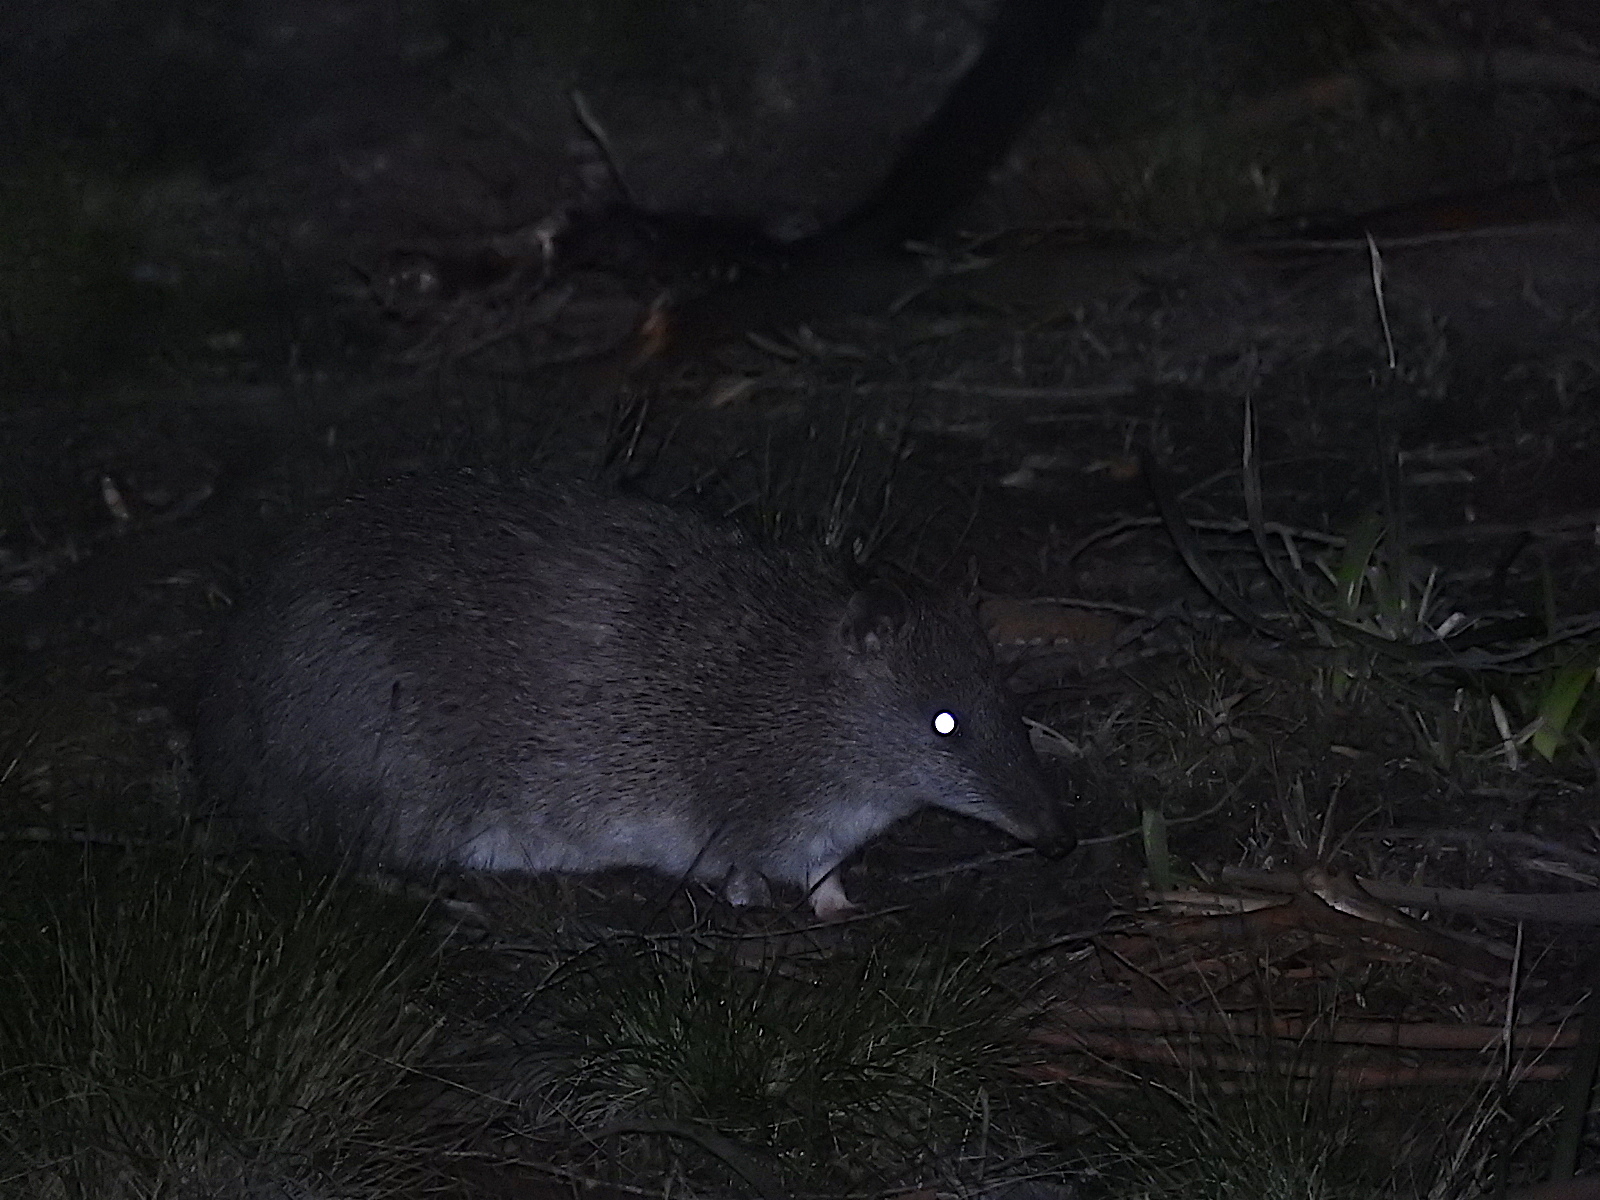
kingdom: Animalia
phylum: Chordata
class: Mammalia
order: Peramelemorphia
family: Peramelidae
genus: Isoodon
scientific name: Isoodon obesulus
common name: Southern brown bandicoot
